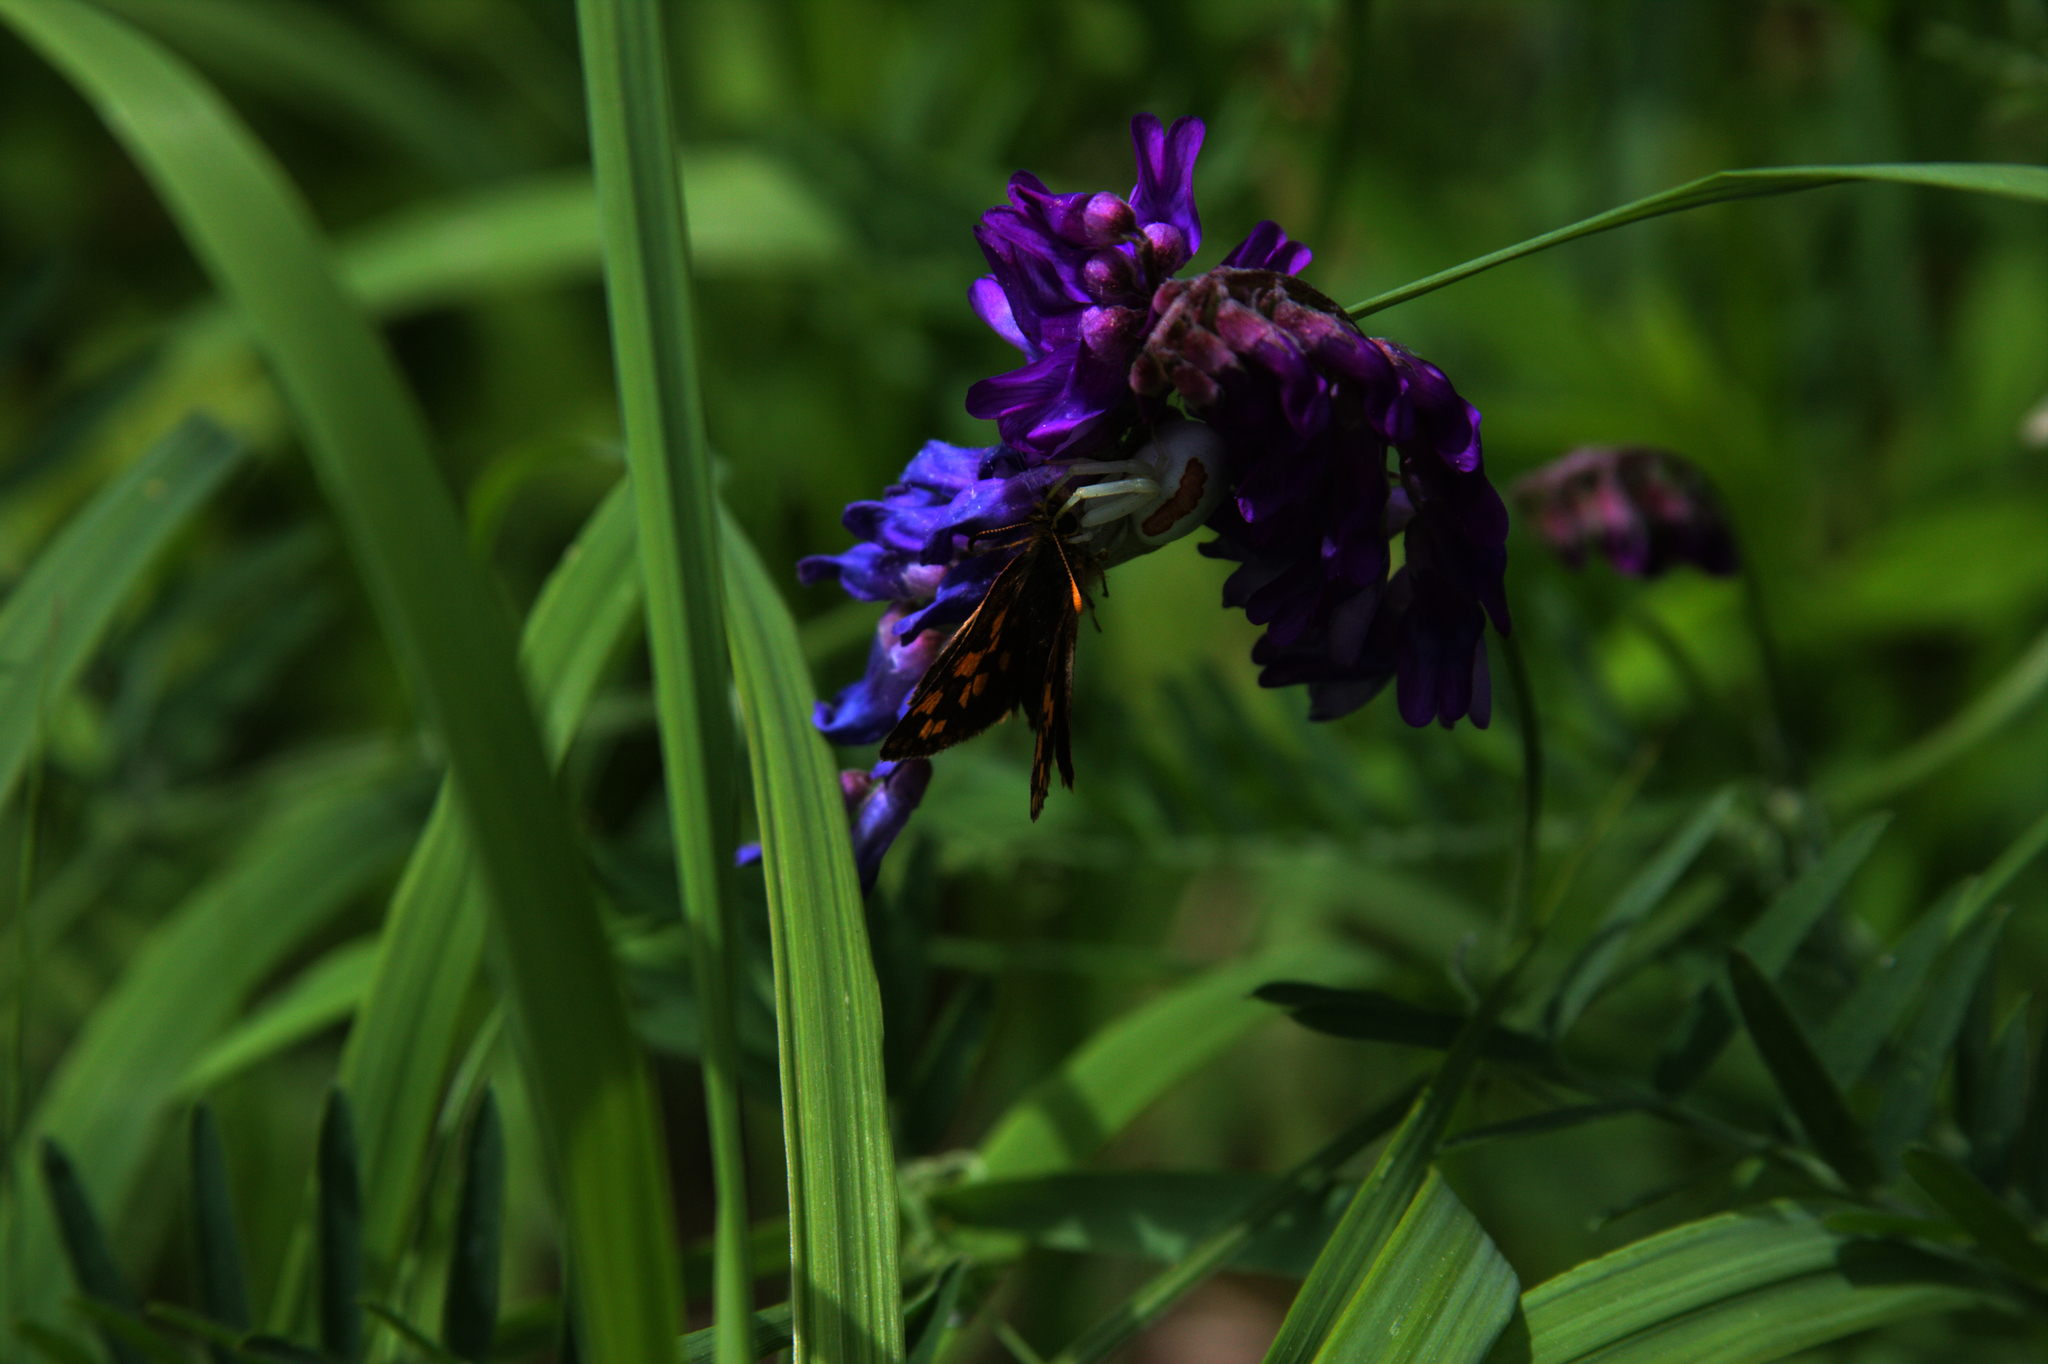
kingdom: Animalia
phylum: Arthropoda
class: Arachnida
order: Araneae
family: Thomisidae
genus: Misumena
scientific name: Misumena vatia
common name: Goldenrod crab spider
